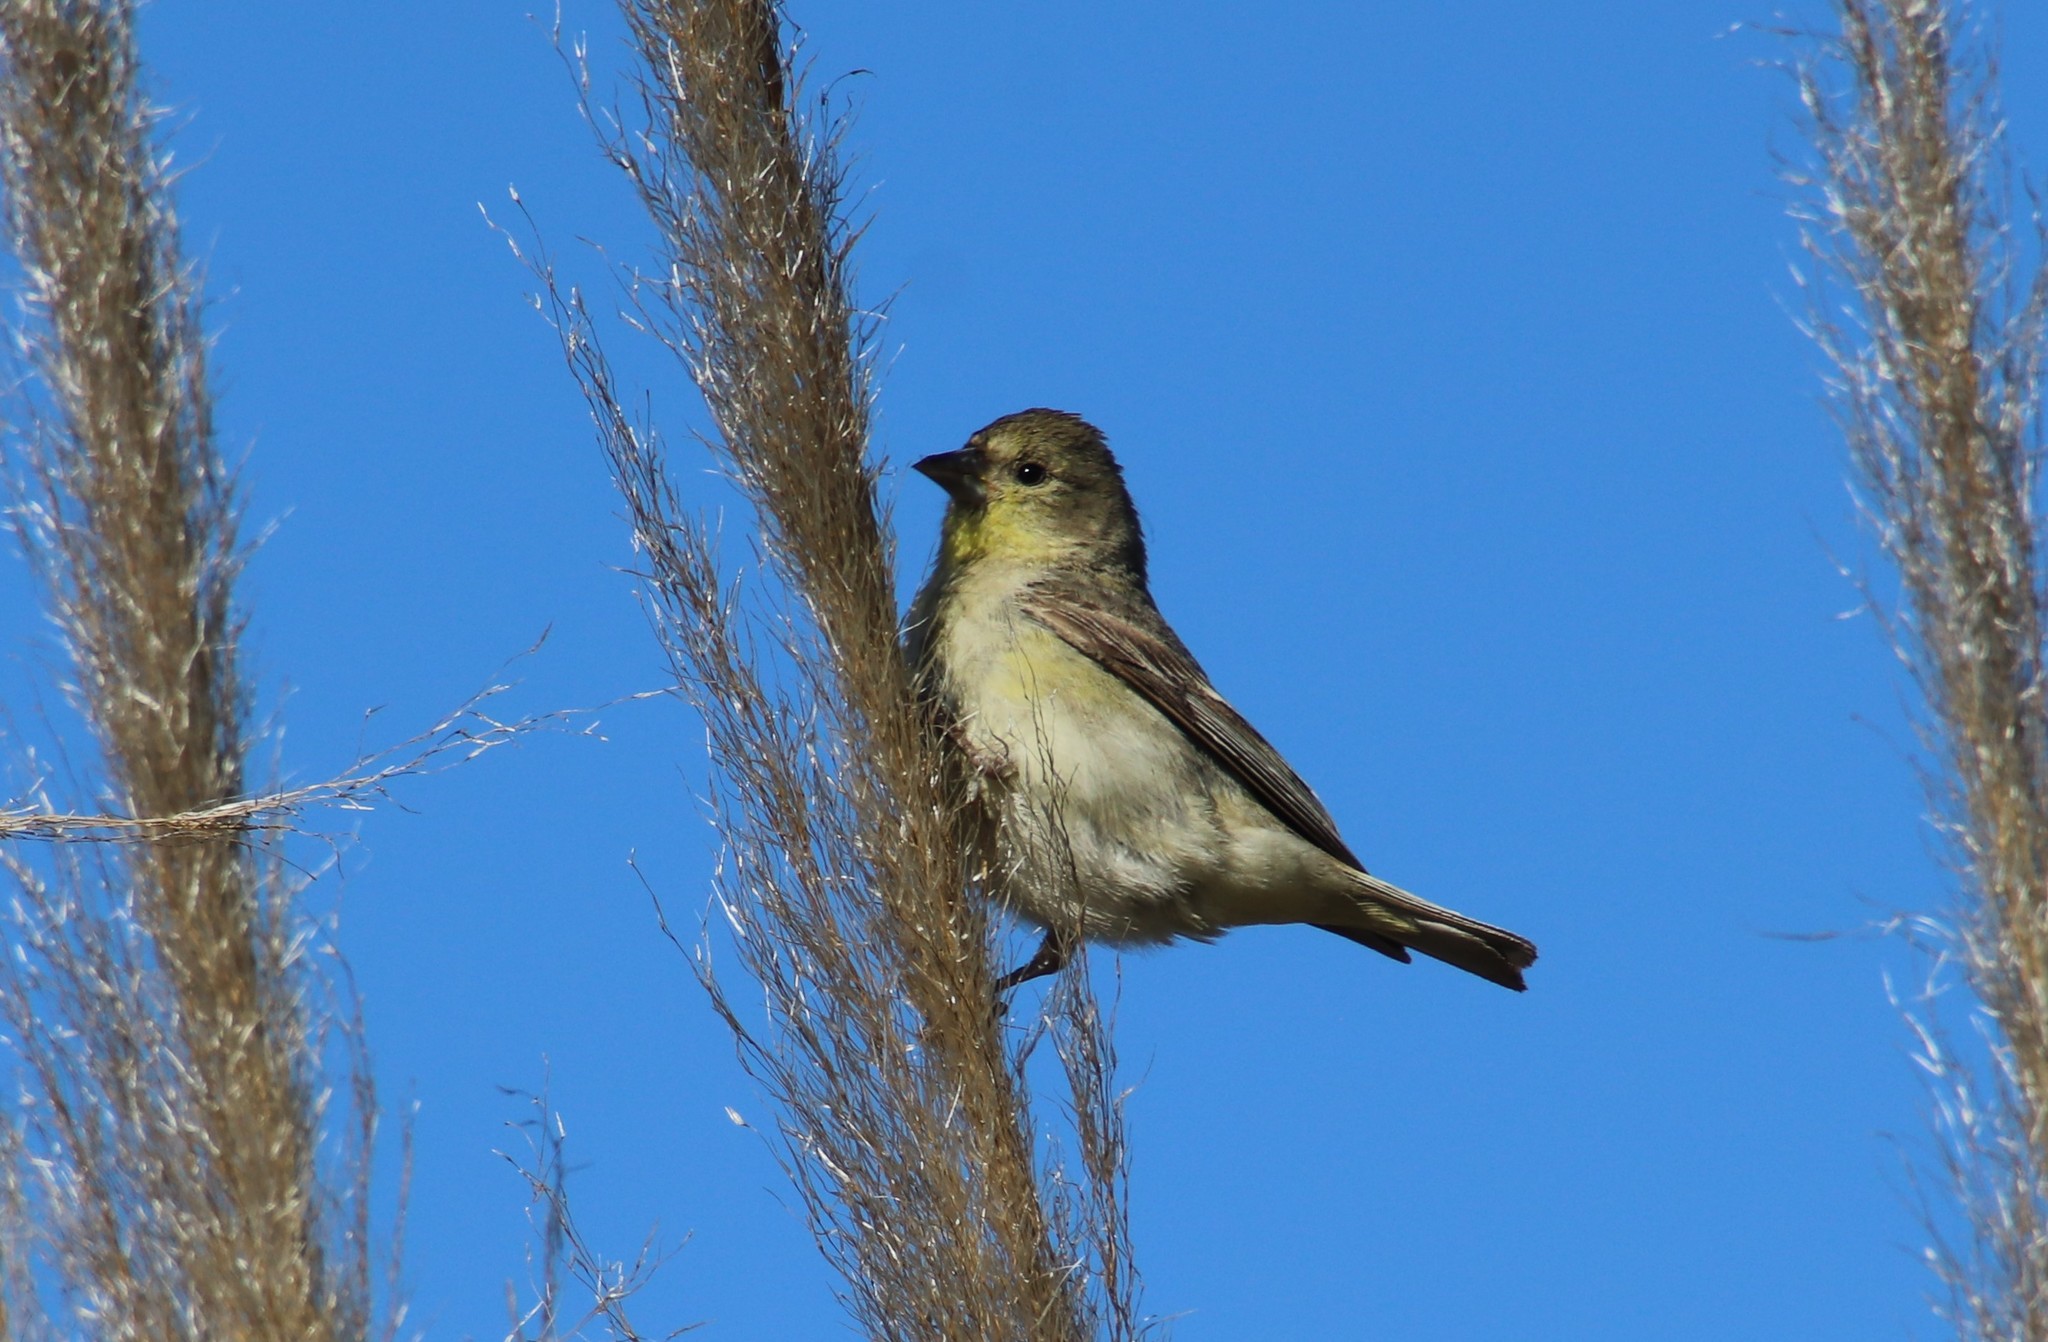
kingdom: Animalia
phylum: Chordata
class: Aves
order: Passeriformes
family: Fringillidae
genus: Spinus
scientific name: Spinus psaltria
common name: Lesser goldfinch
